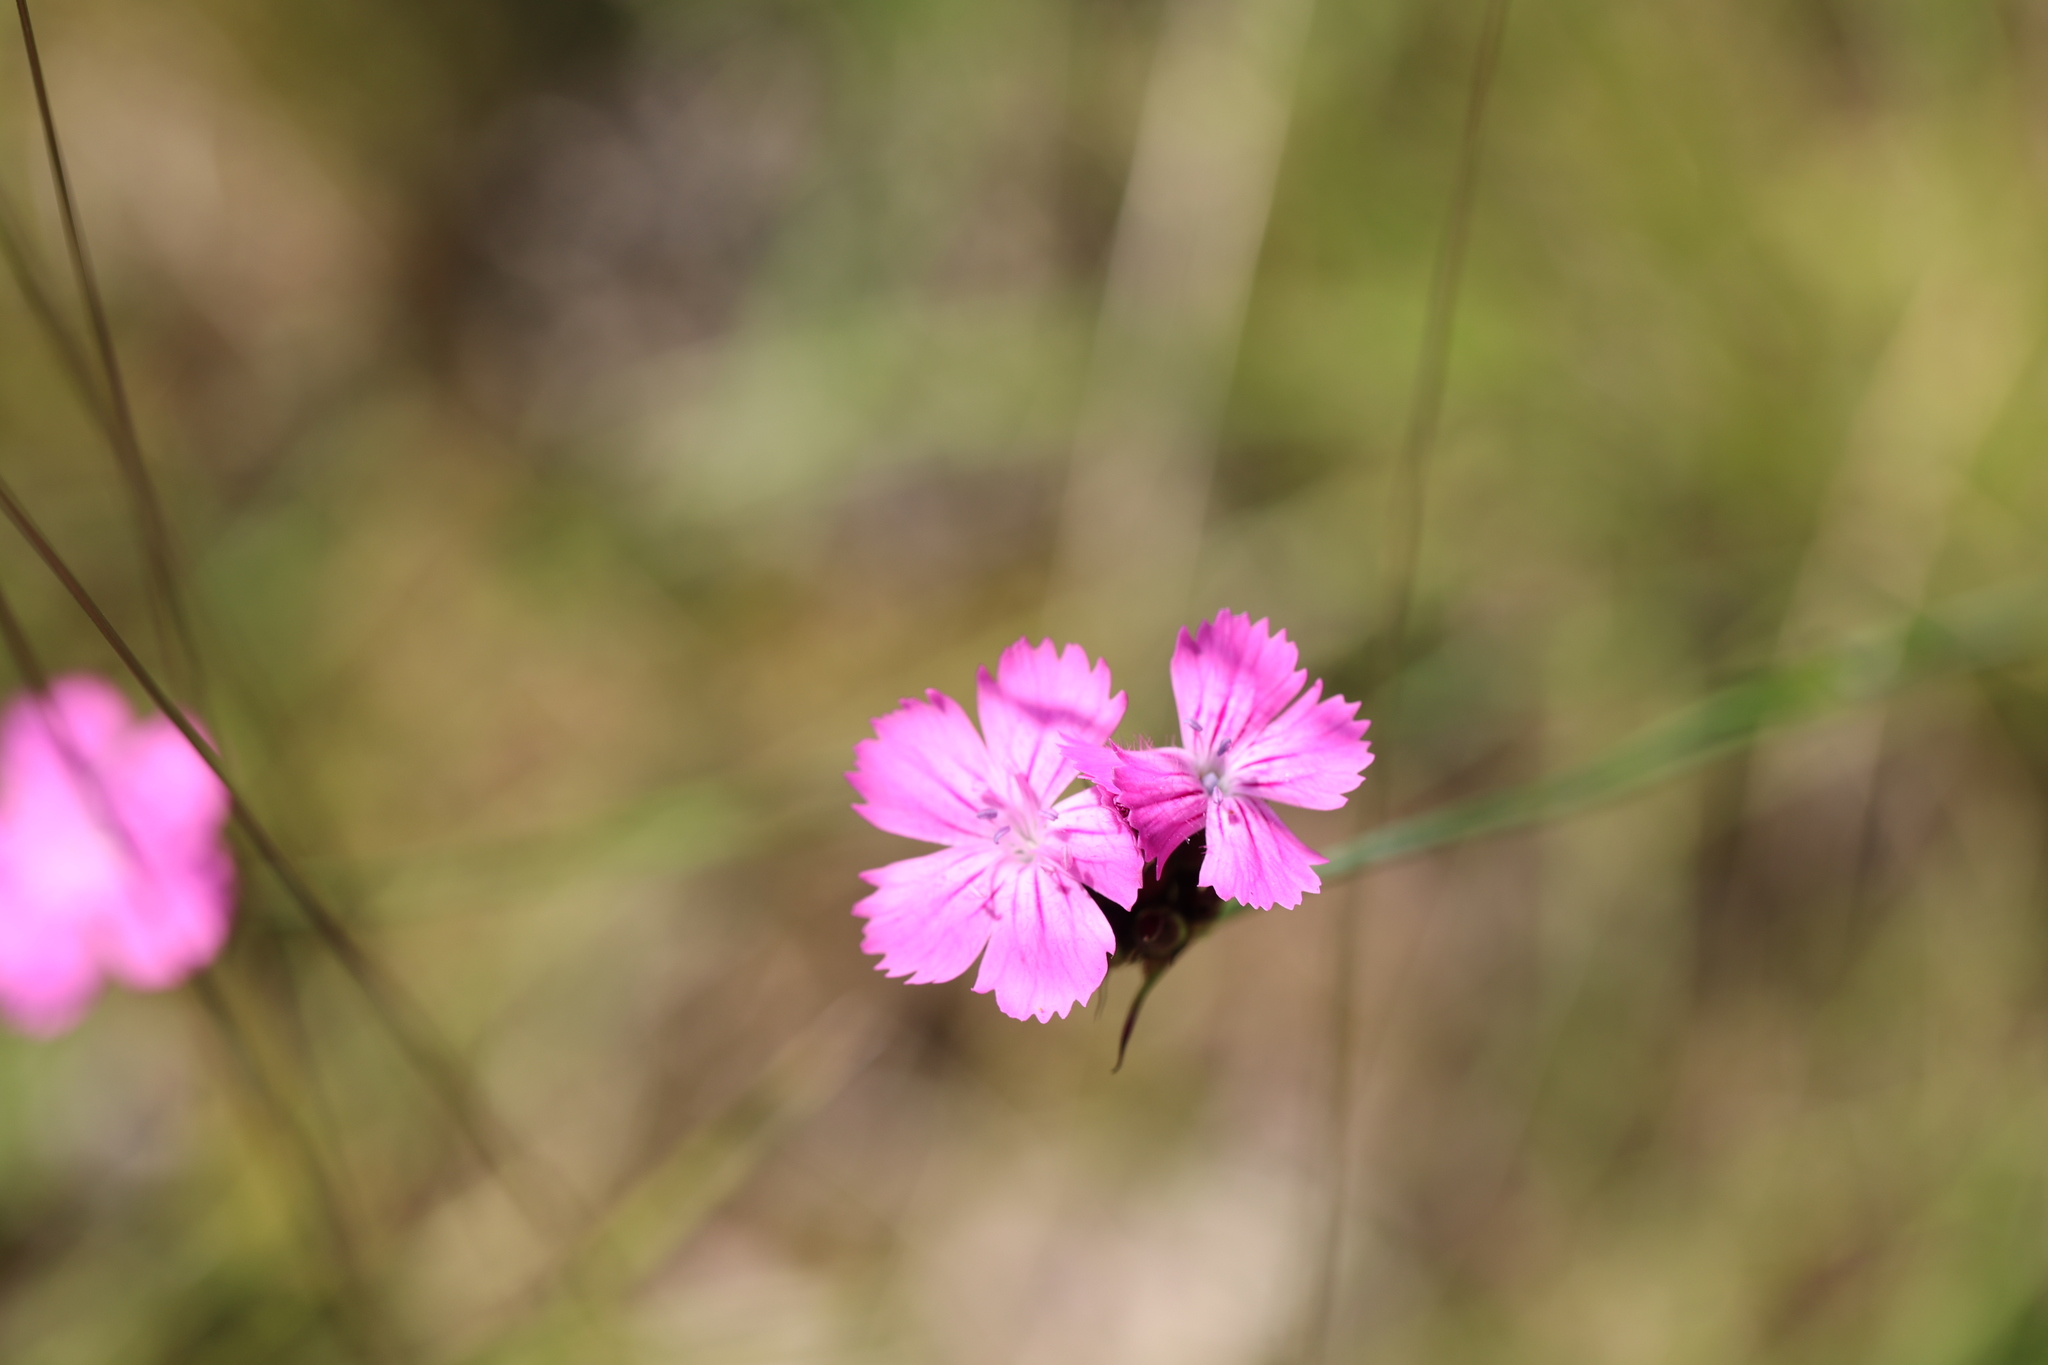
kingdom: Plantae
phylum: Tracheophyta
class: Magnoliopsida
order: Caryophyllales
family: Caryophyllaceae
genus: Dianthus
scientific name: Dianthus carthusianorum
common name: Carthusian pink
